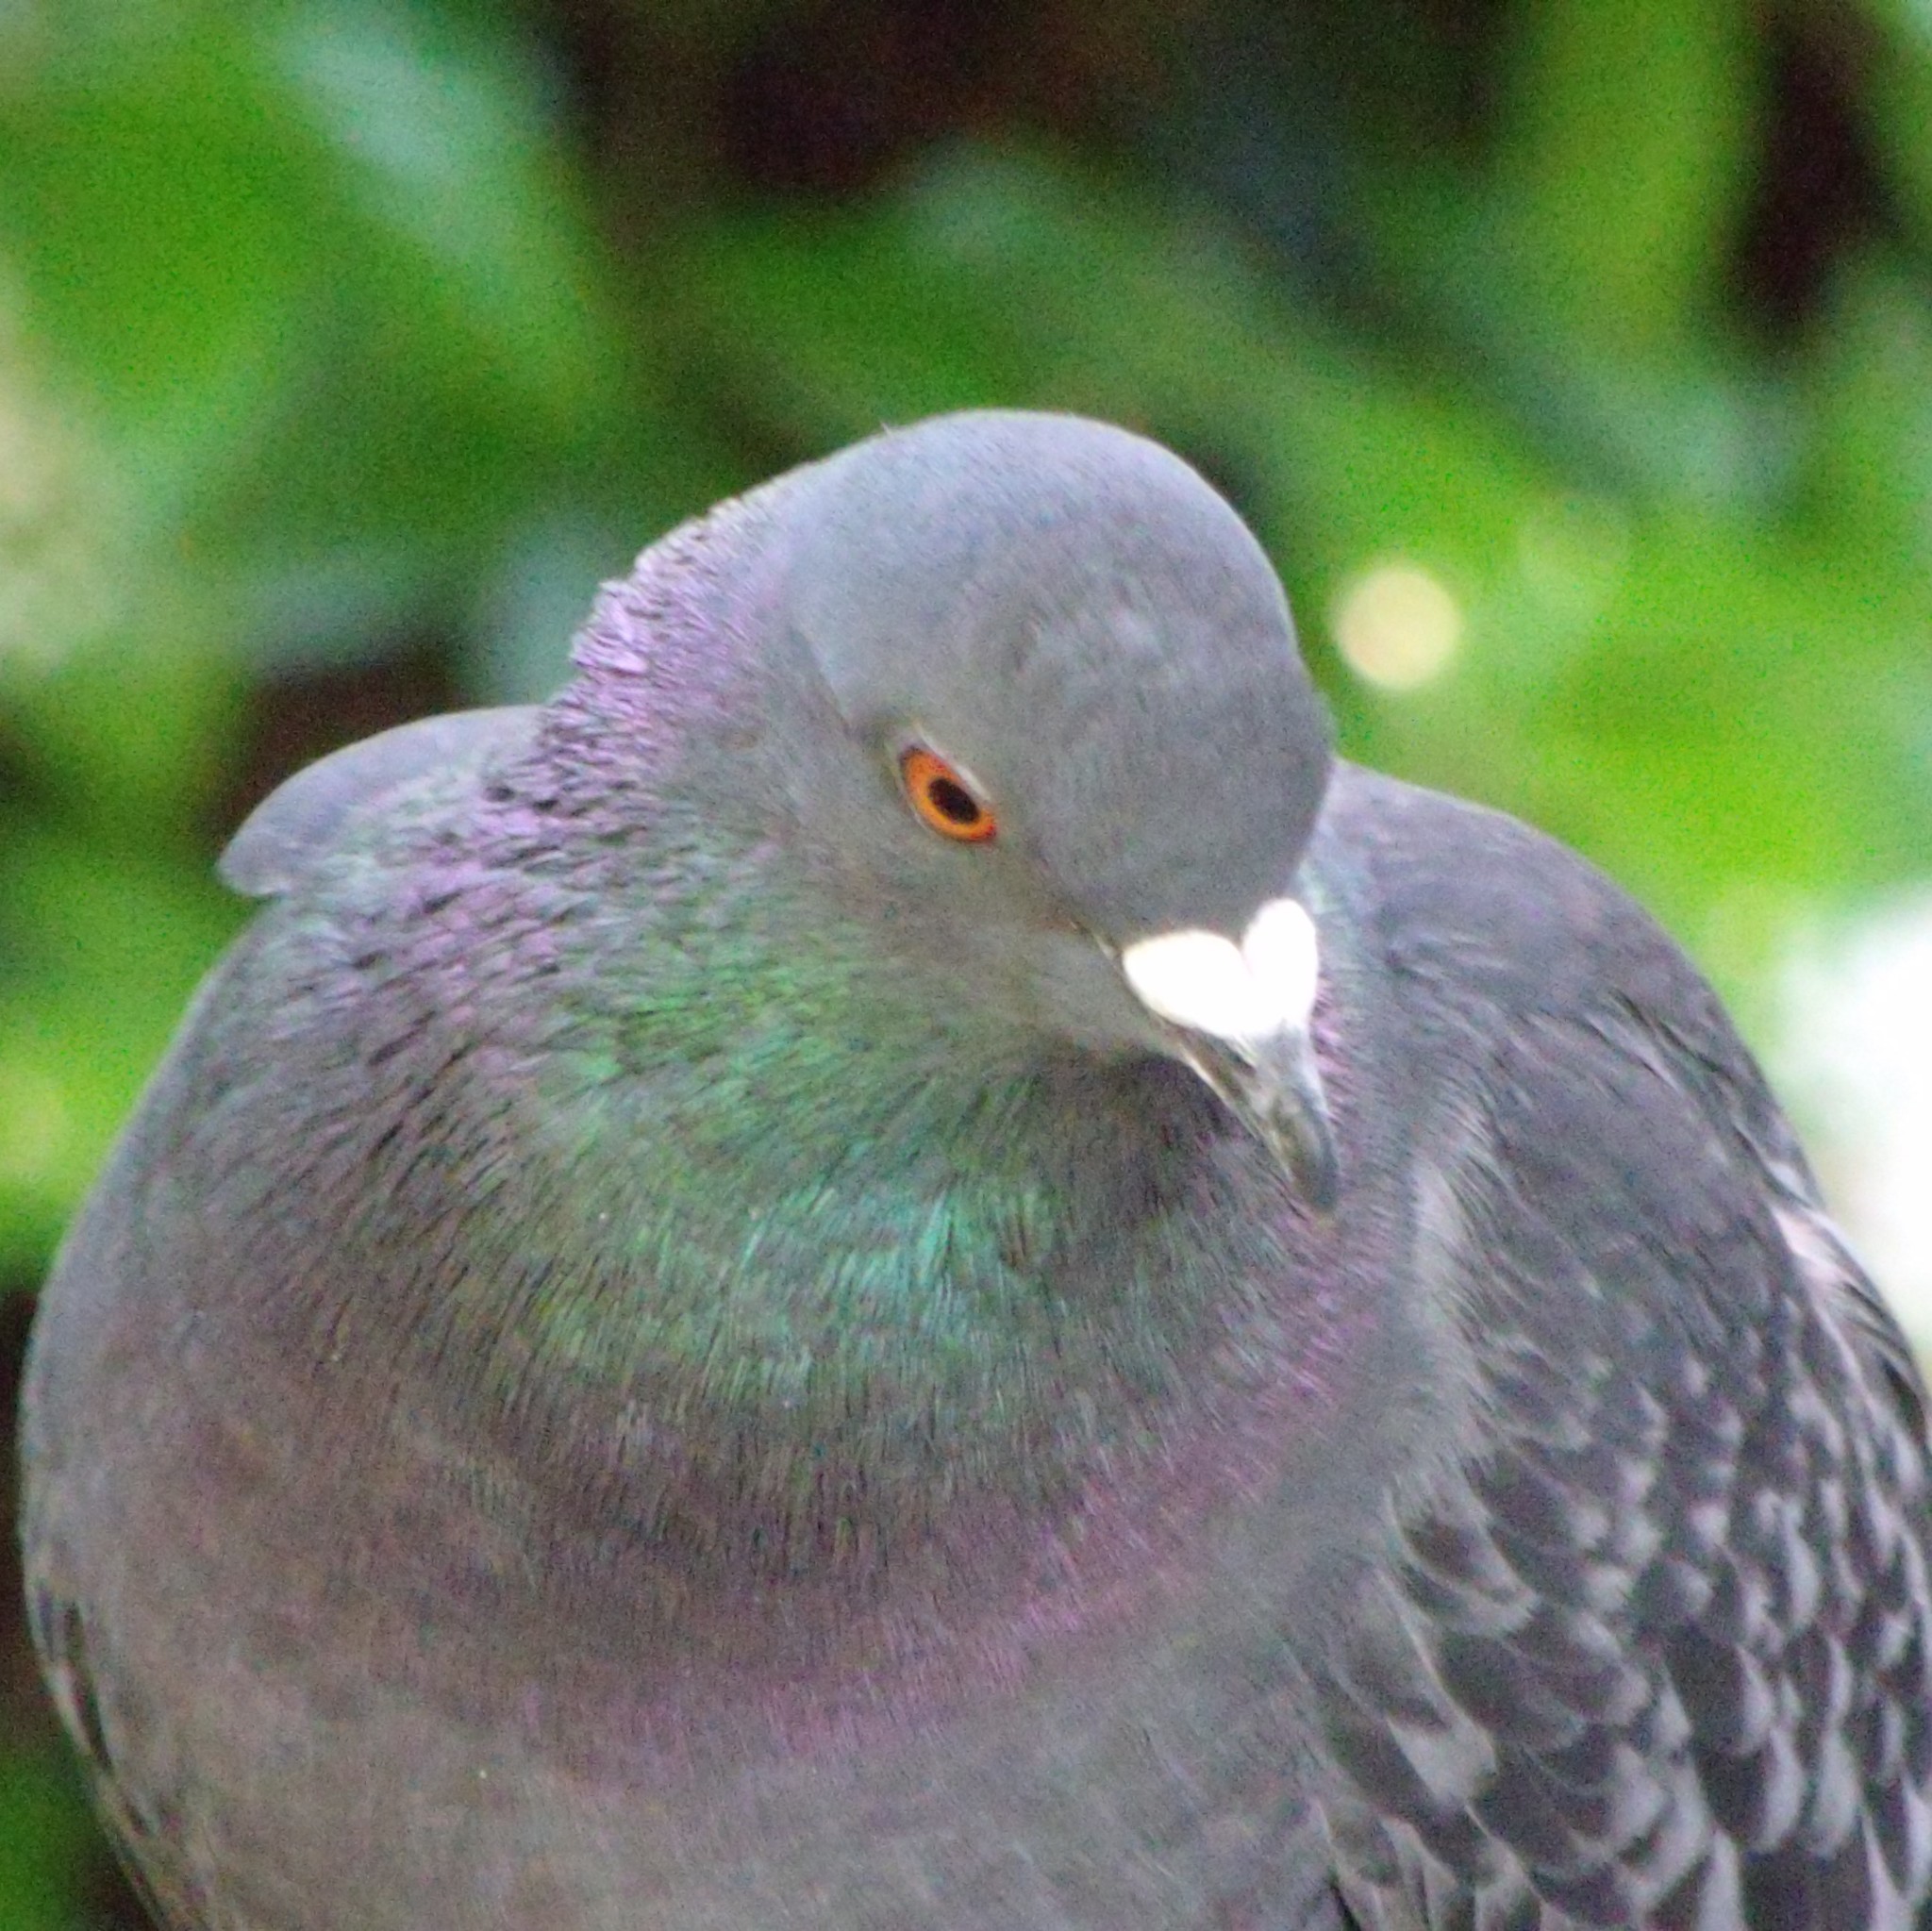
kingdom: Animalia
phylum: Chordata
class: Aves
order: Columbiformes
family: Columbidae
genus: Columba
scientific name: Columba livia
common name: Rock pigeon
